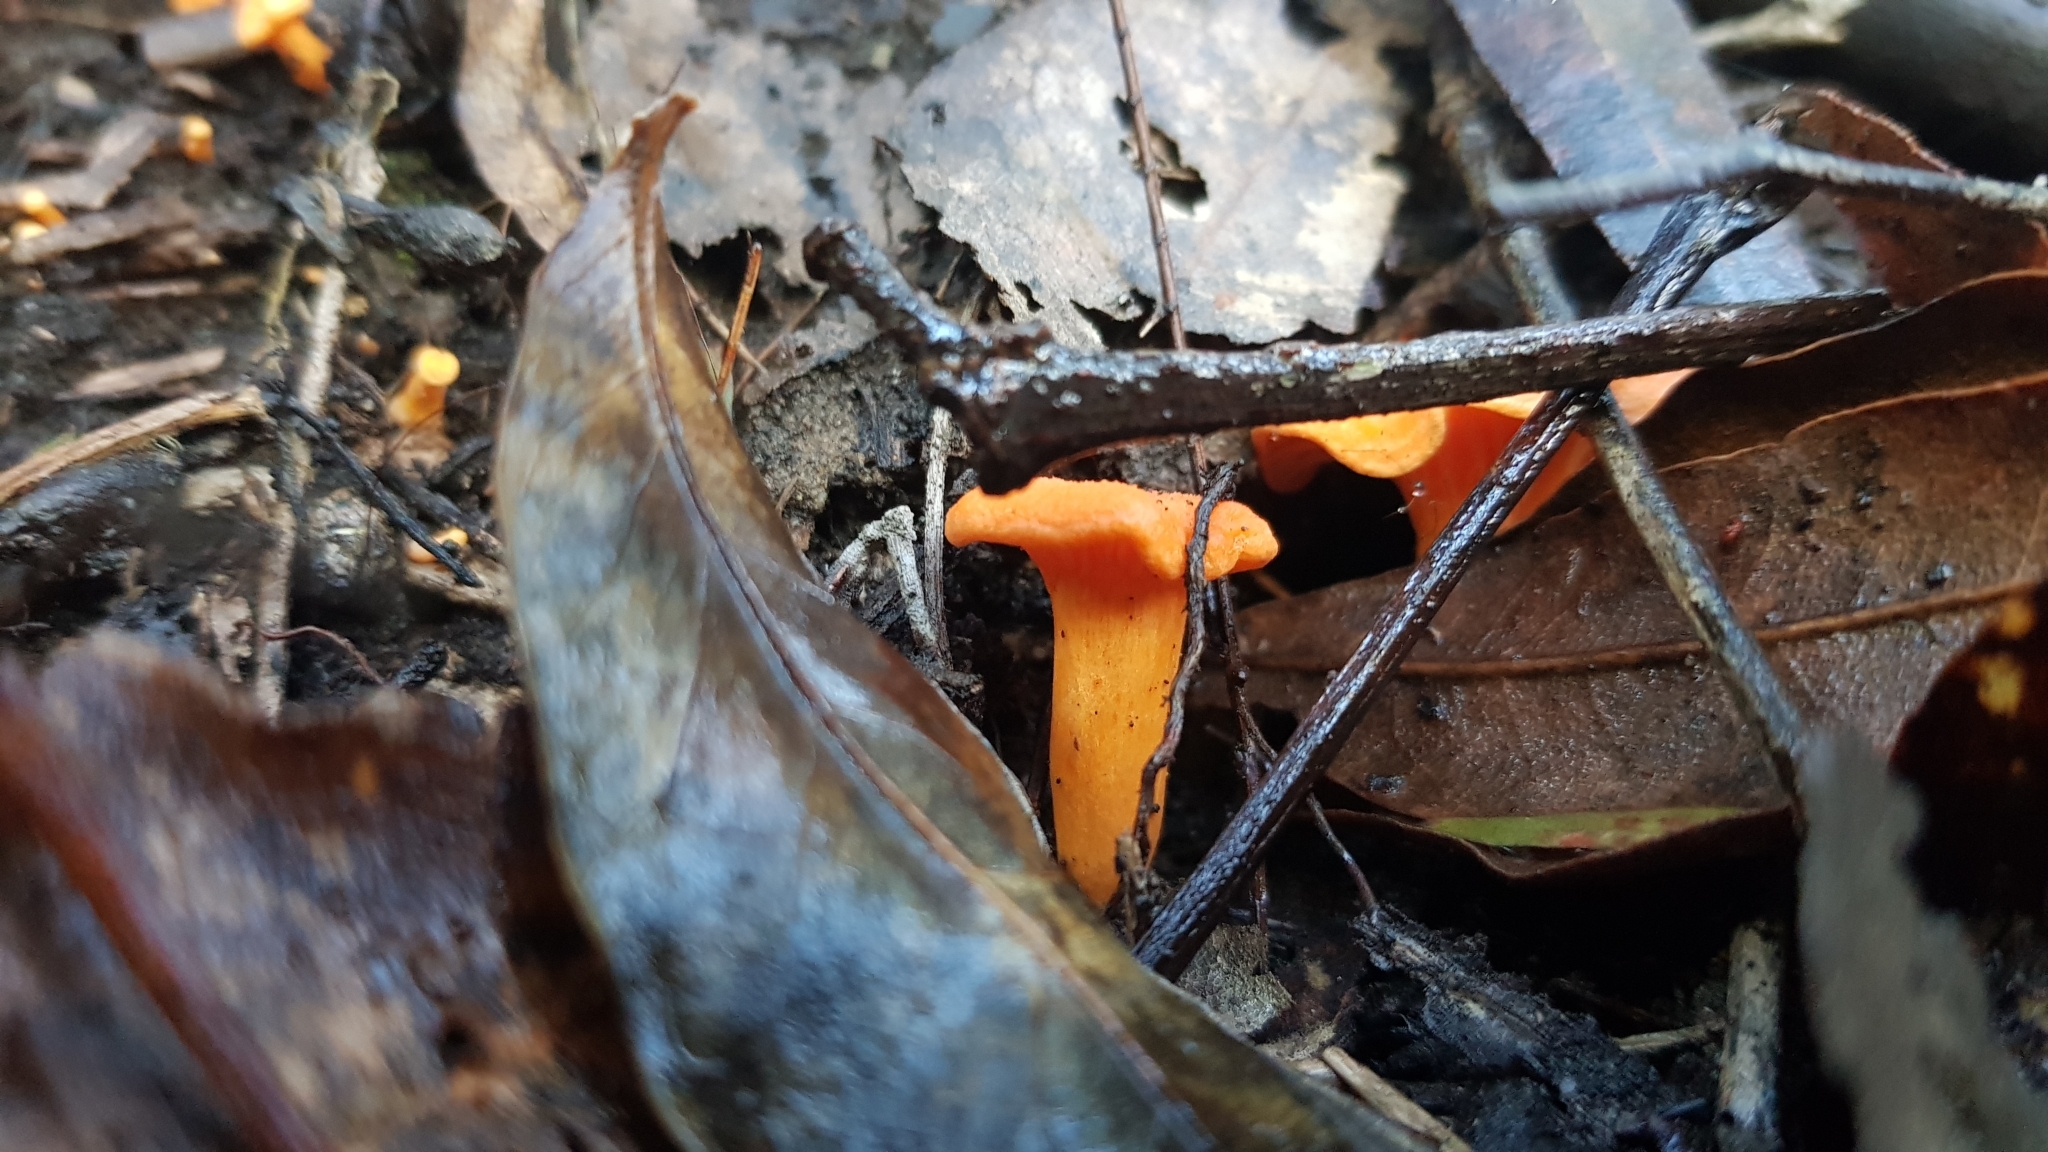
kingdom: Fungi
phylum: Basidiomycota
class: Agaricomycetes
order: Cantharellales
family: Hydnaceae
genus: Cantharellus
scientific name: Cantharellus
